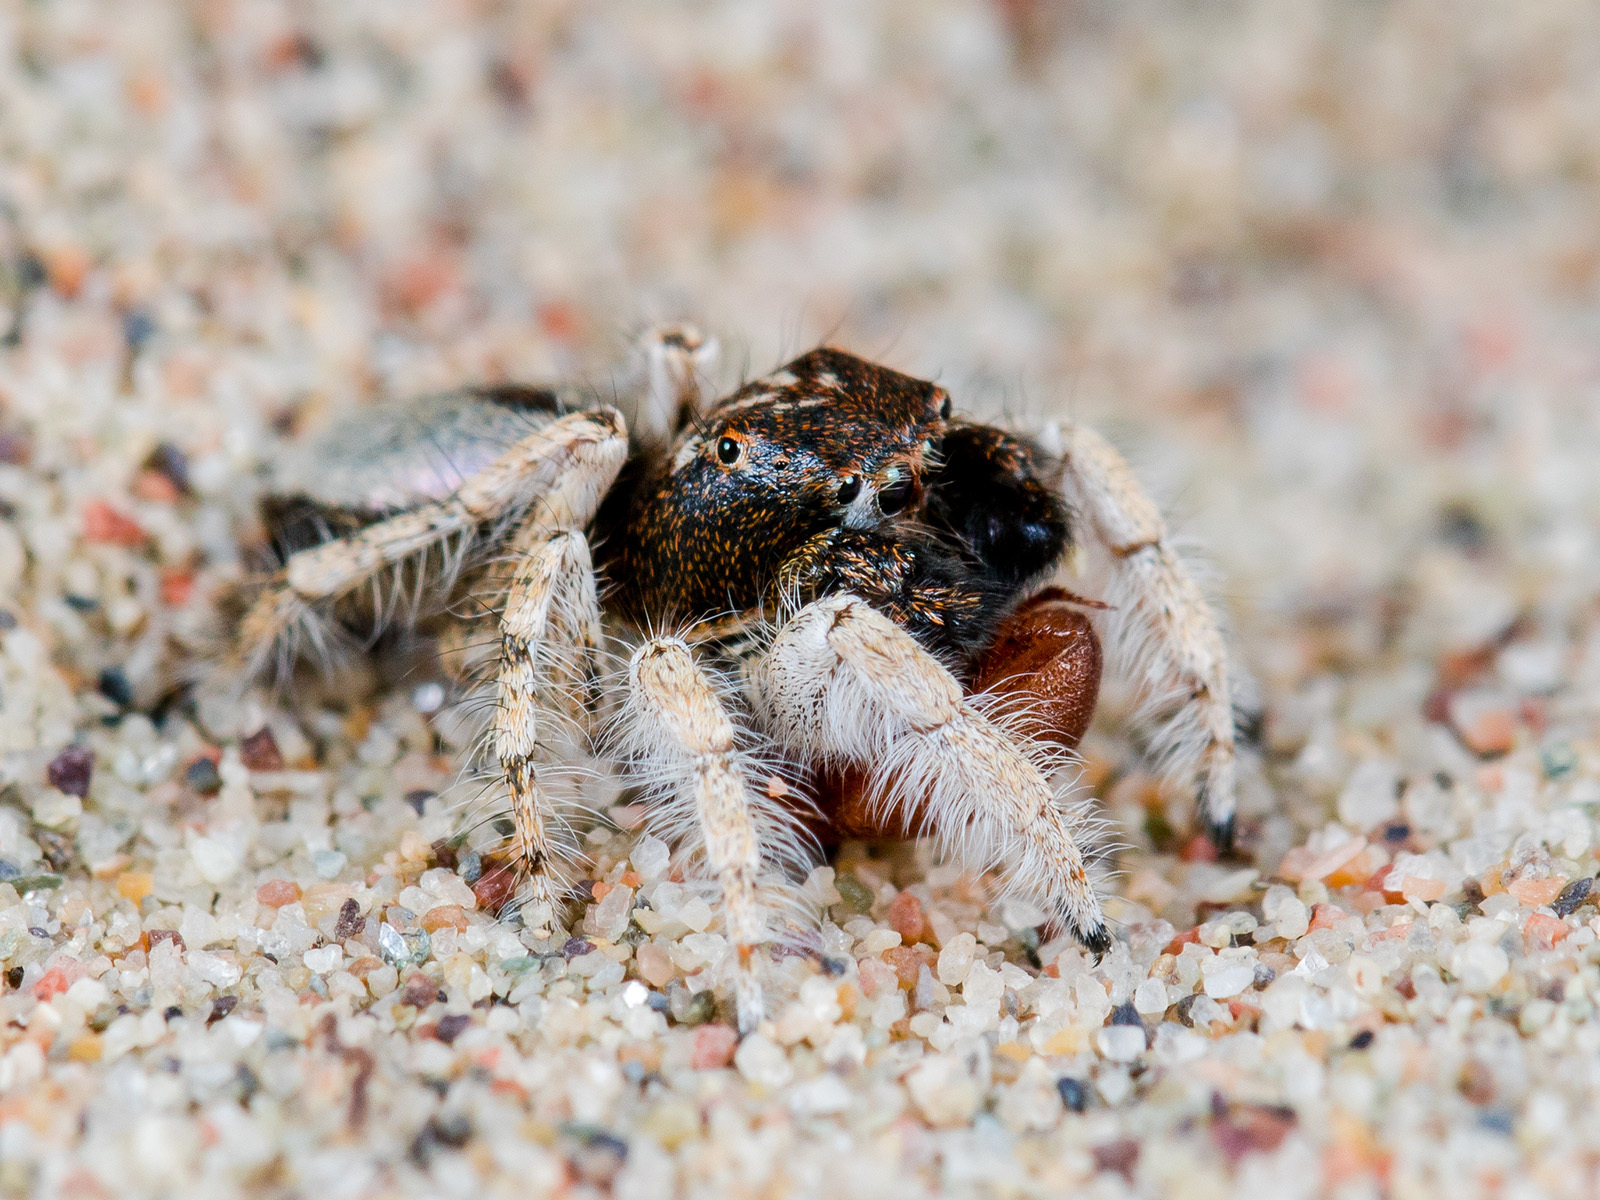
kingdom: Animalia
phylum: Arthropoda
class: Arachnida
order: Araneae
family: Salticidae
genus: Yllenus
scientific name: Yllenus uiguricus
